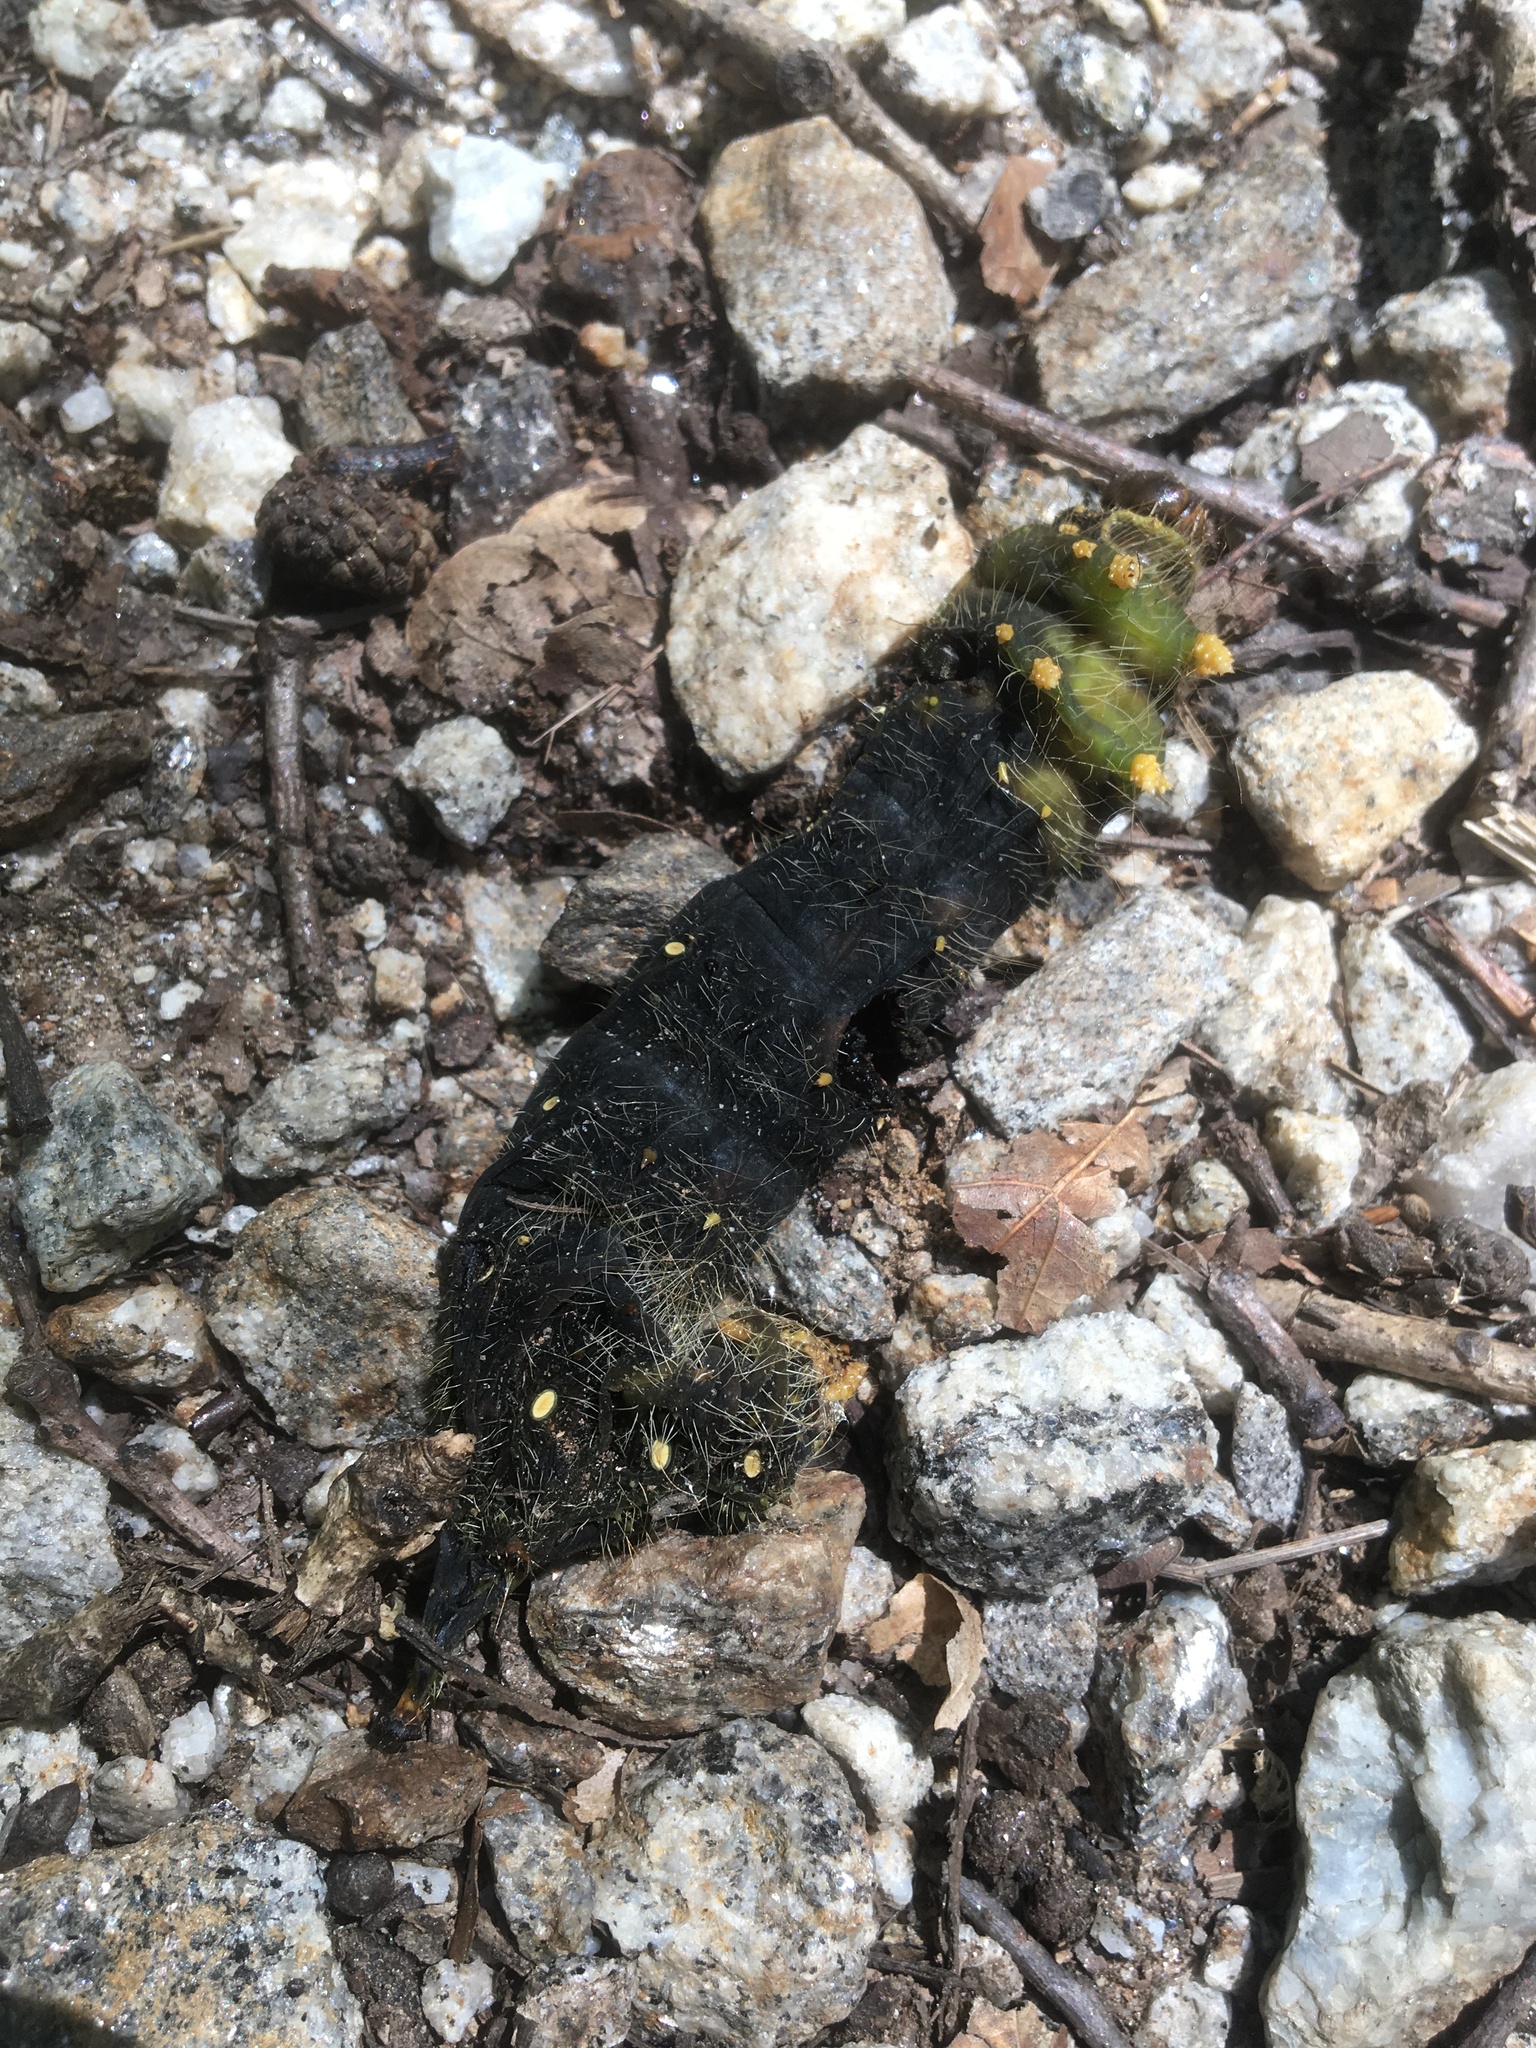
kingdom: Animalia
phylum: Arthropoda
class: Insecta
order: Lepidoptera
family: Saturniidae
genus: Eacles
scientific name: Eacles imperialis
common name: Imperial moth
